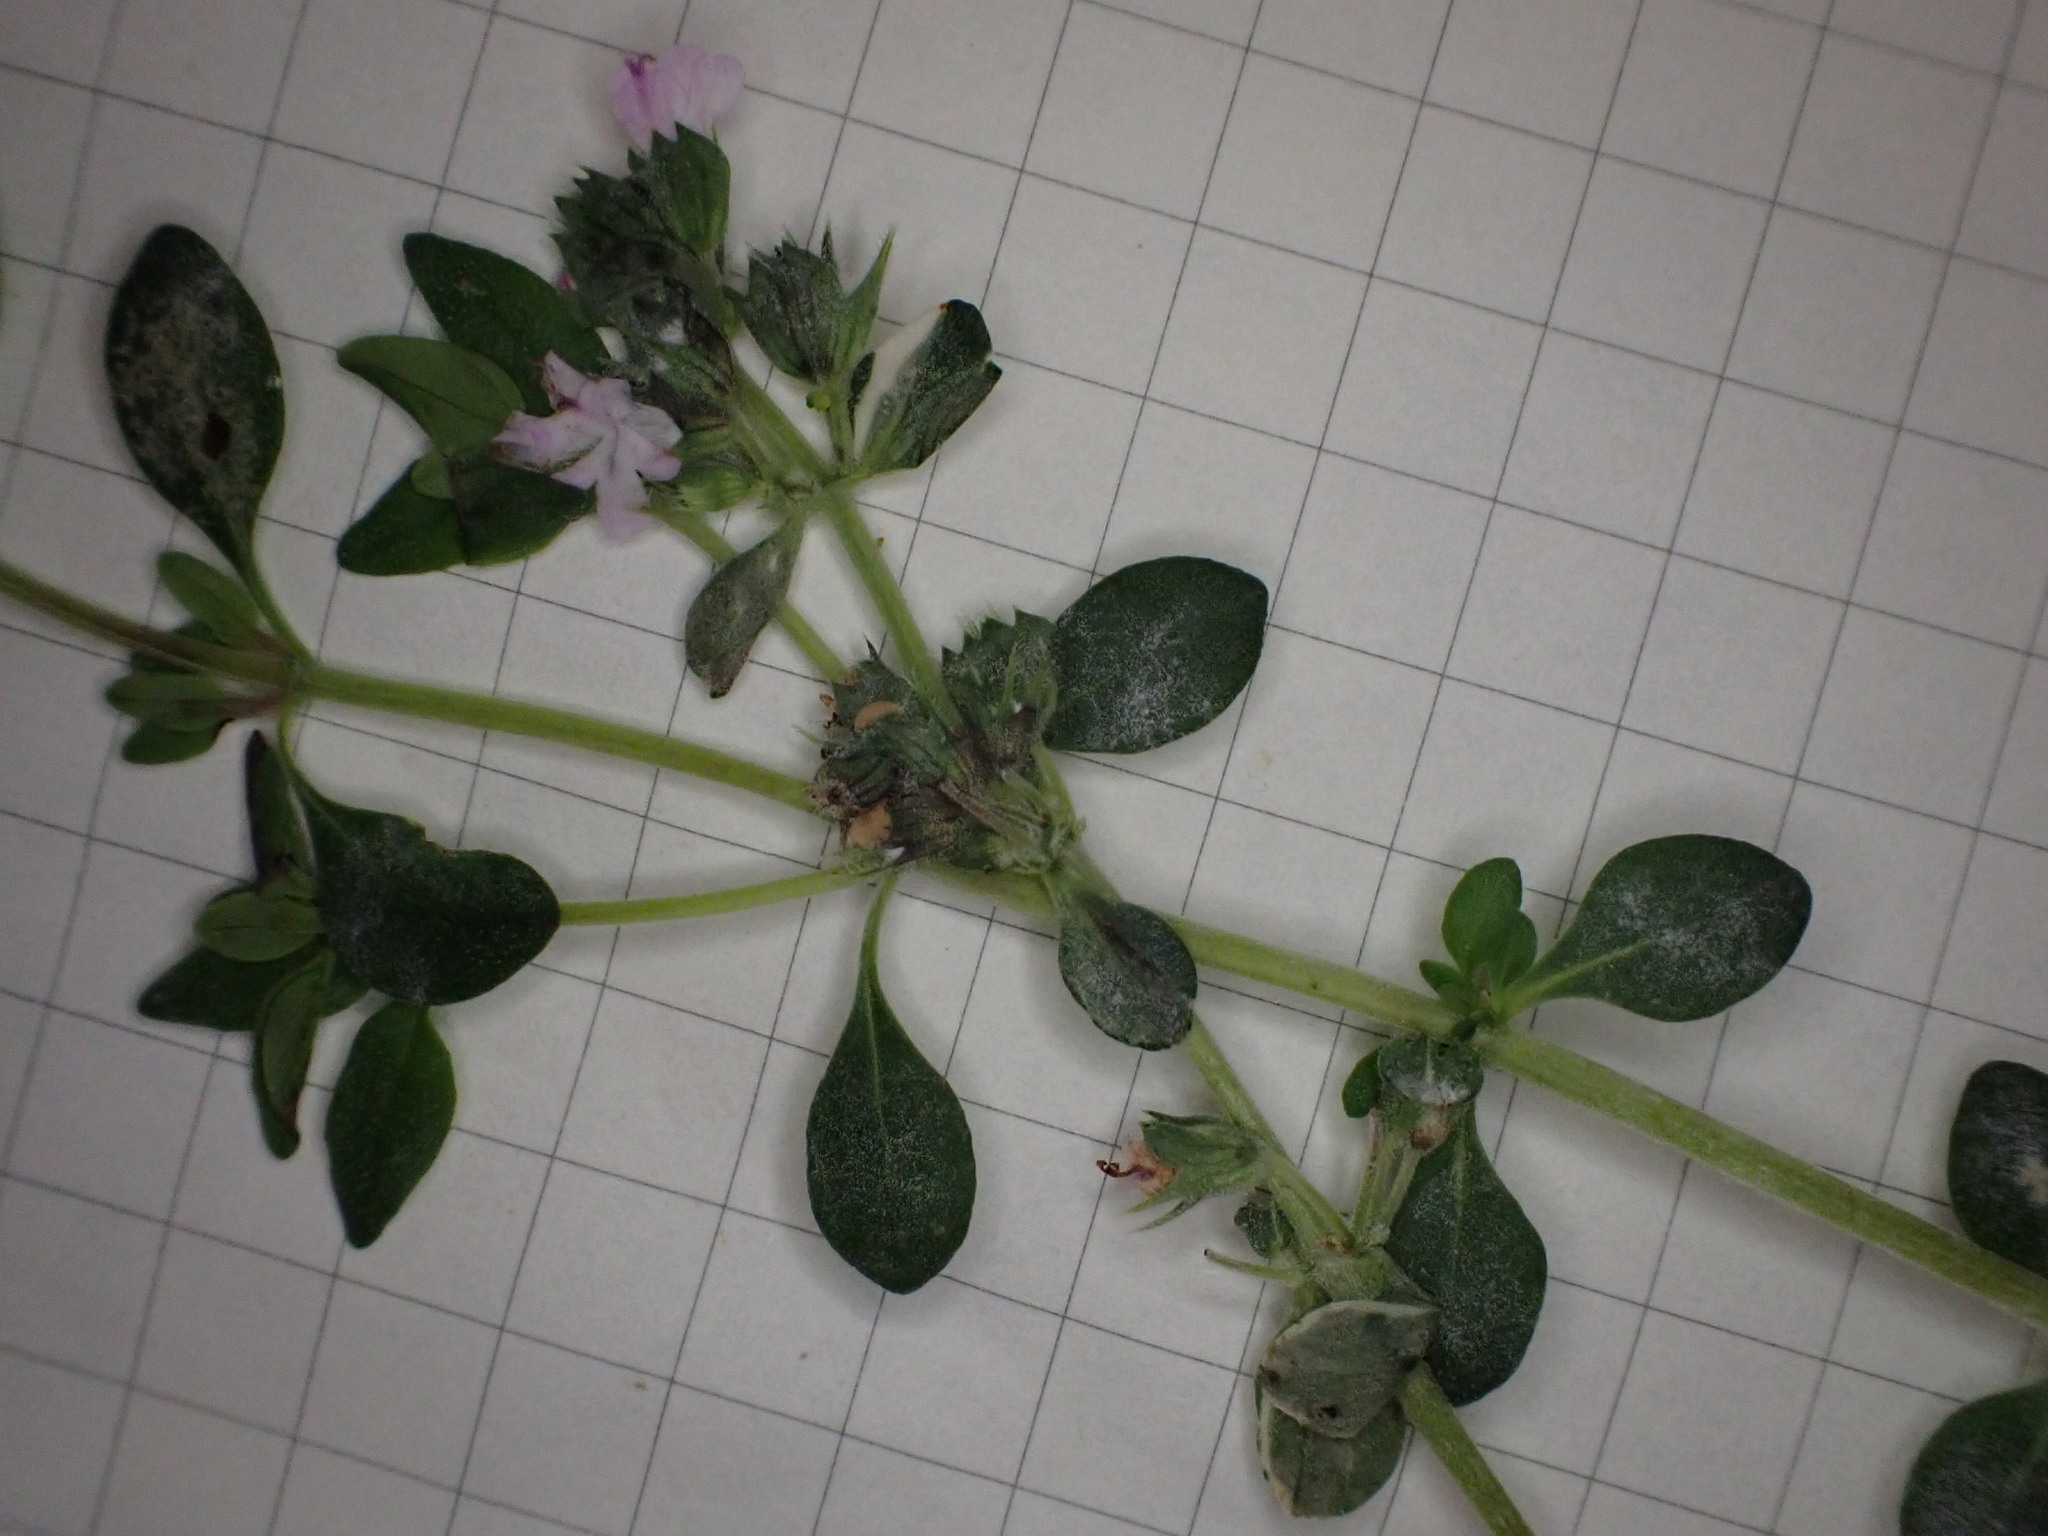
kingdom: Fungi
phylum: Ascomycota
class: Leotiomycetes
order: Helotiales
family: Erysiphaceae
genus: Neoerysiphe
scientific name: Neoerysiphe galeopsidis
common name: Mint mildew
